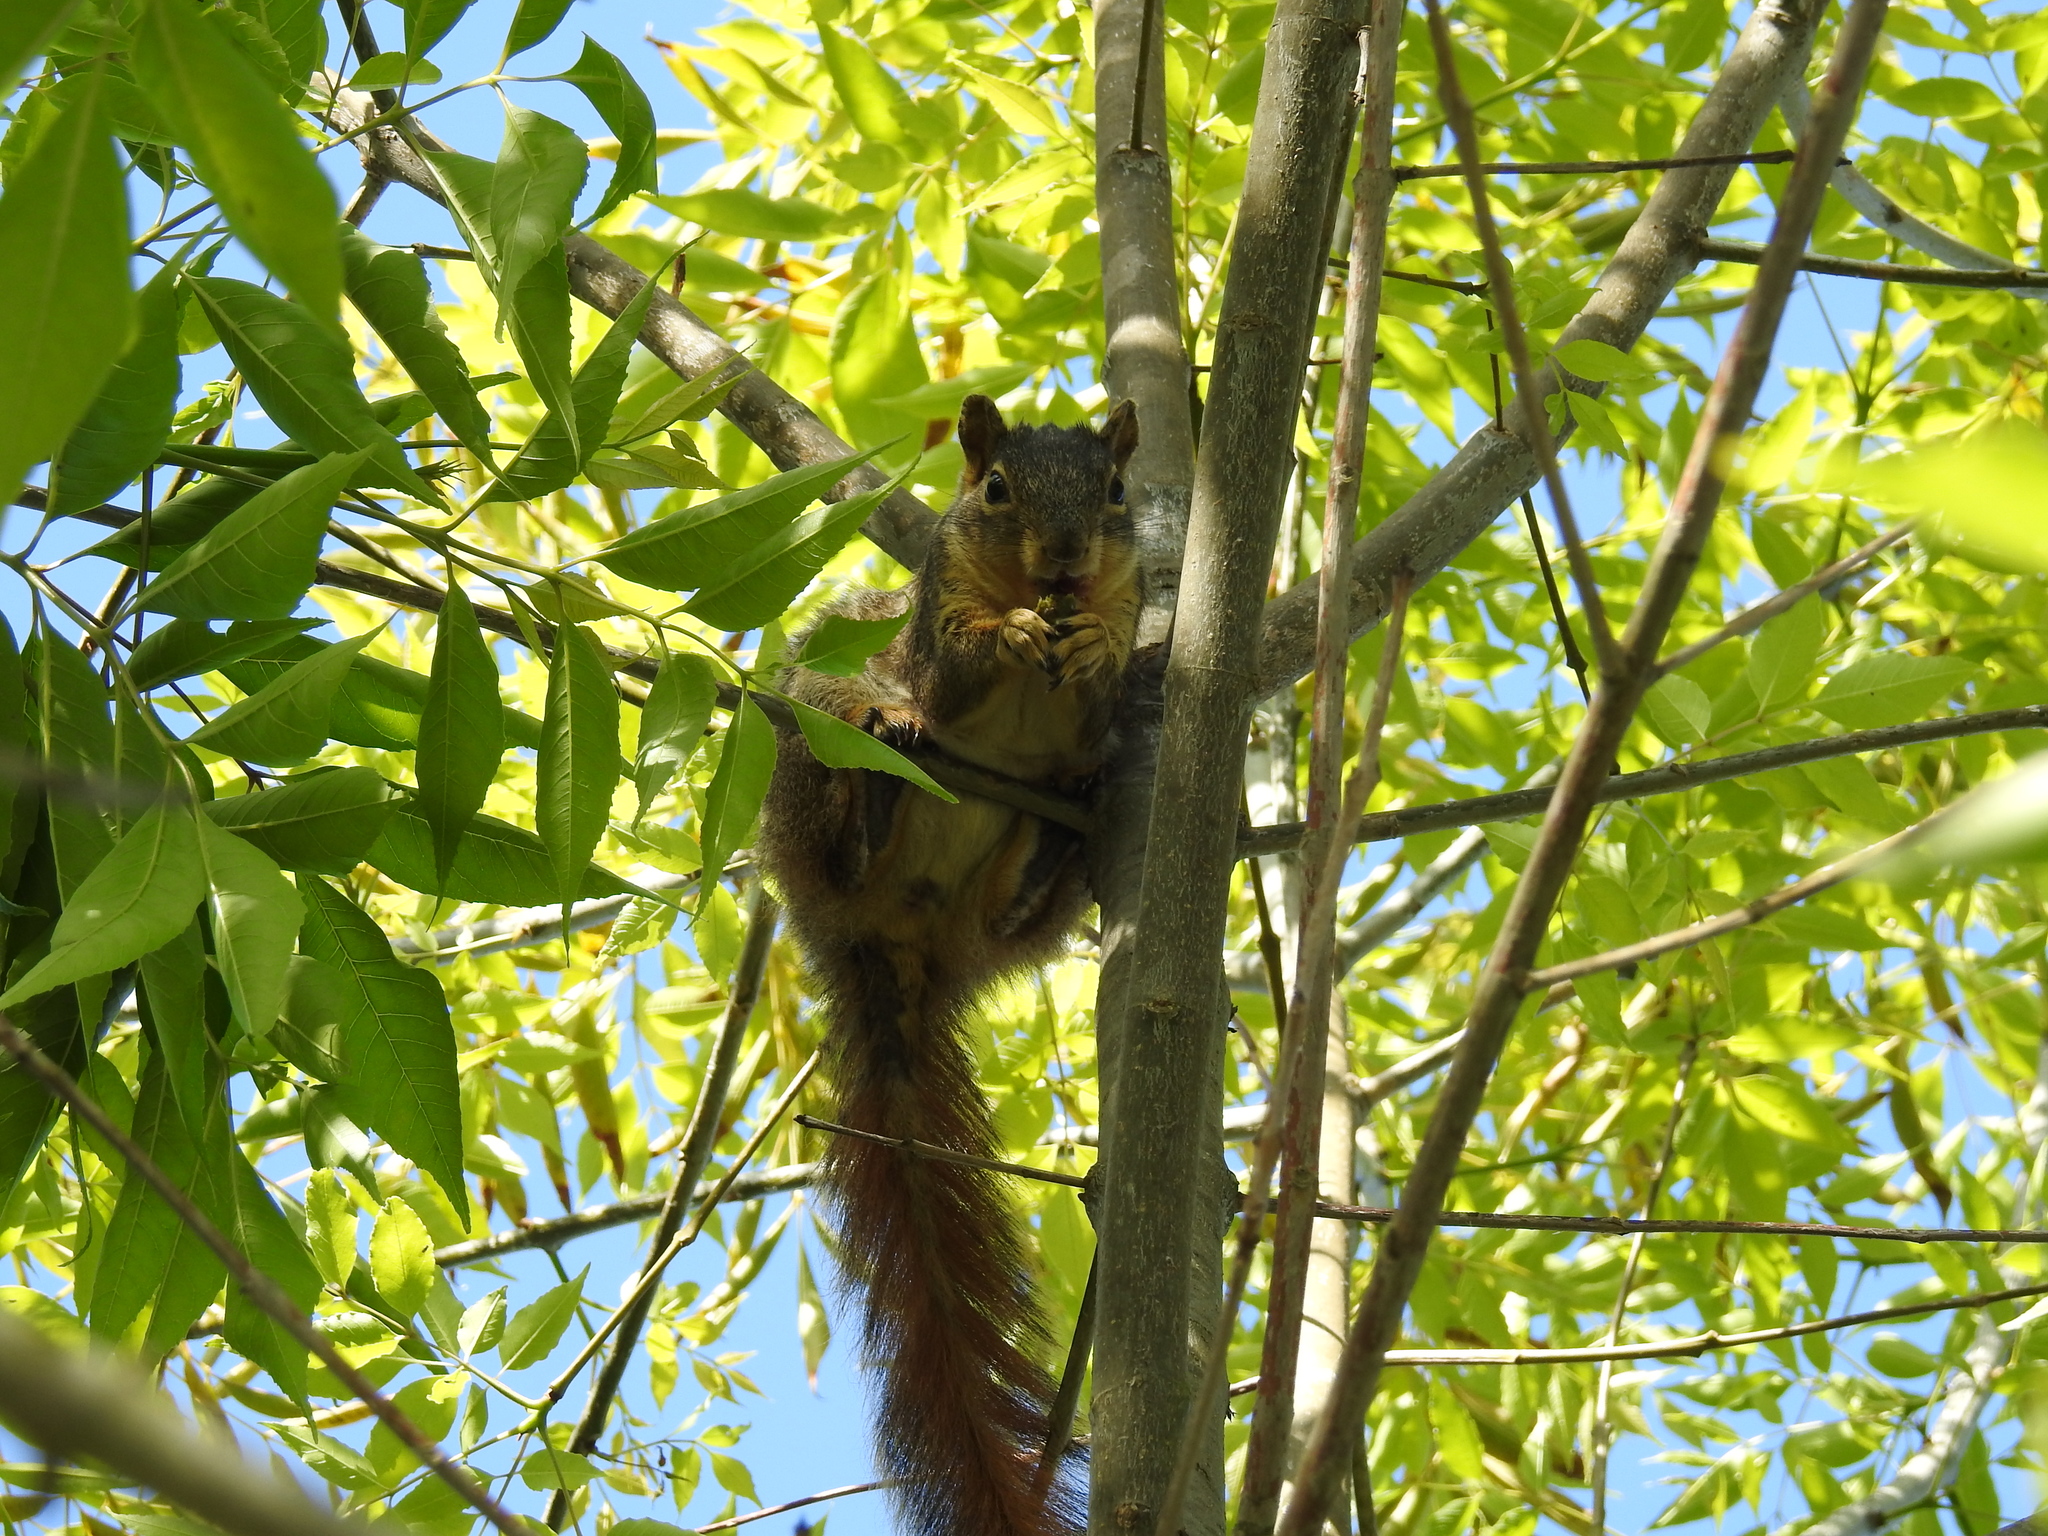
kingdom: Animalia
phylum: Chordata
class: Mammalia
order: Rodentia
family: Sciuridae
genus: Sciurus
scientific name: Sciurus niger
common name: Fox squirrel
